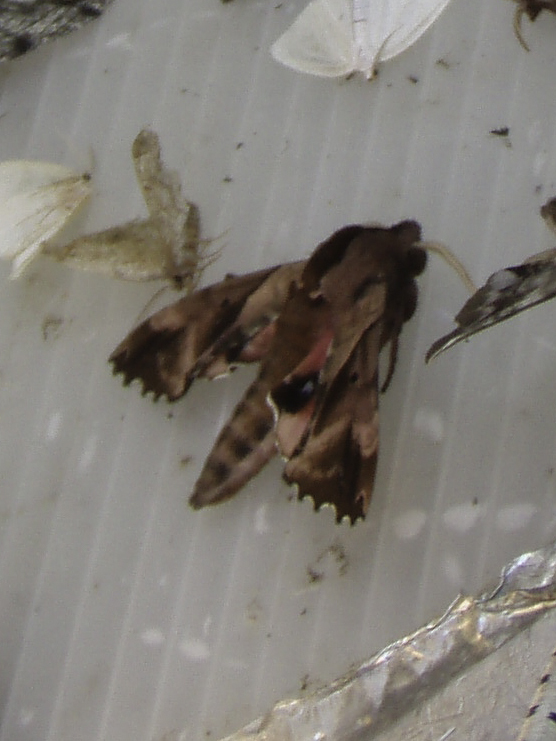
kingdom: Animalia
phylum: Arthropoda
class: Insecta
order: Lepidoptera
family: Sphingidae
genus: Paonias
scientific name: Paonias excaecata
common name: Blind-eyed sphinx
